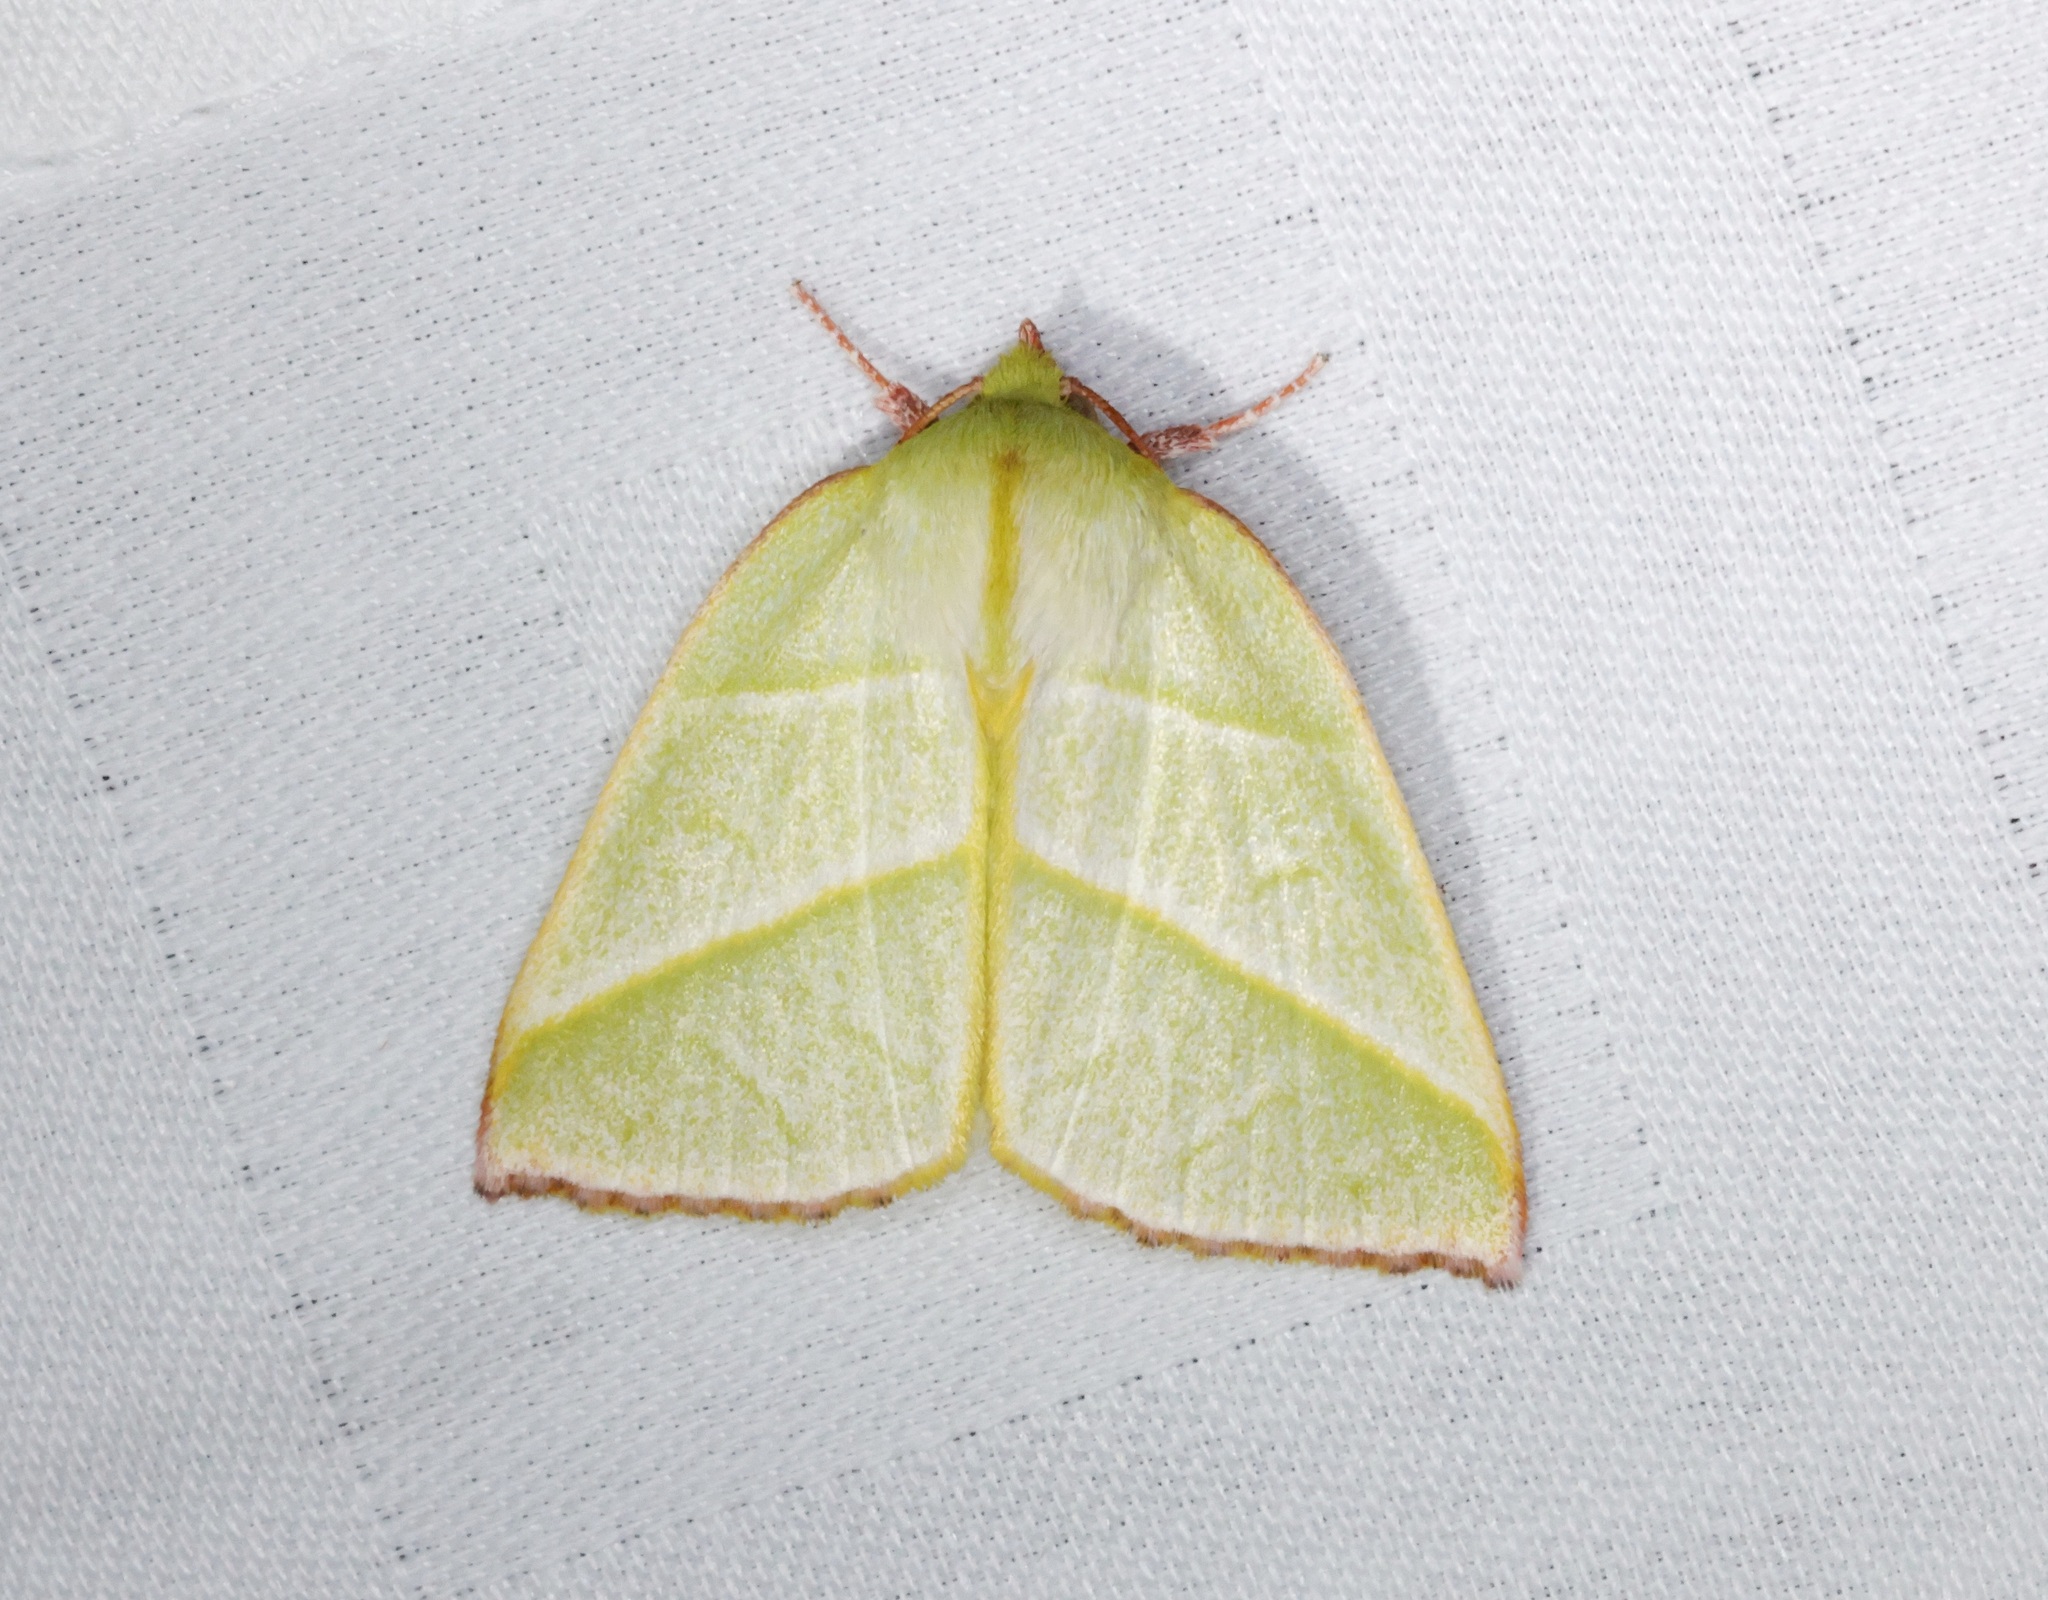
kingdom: Animalia
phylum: Arthropoda
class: Insecta
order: Lepidoptera
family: Nolidae
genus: Hylophilodes
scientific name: Hylophilodes tsukusensis
